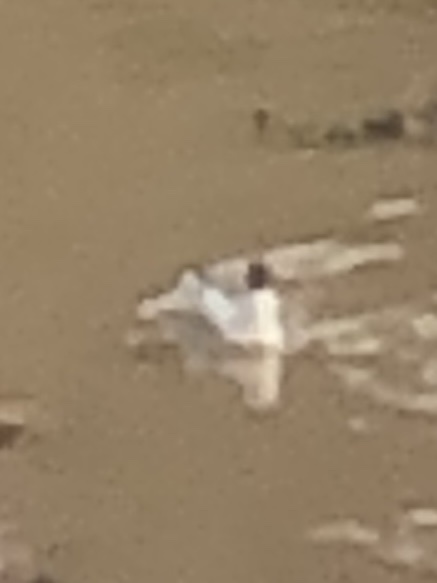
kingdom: Animalia
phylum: Chordata
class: Aves
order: Charadriiformes
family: Laridae
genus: Chroicocephalus
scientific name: Chroicocephalus serranus
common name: Andean gull
